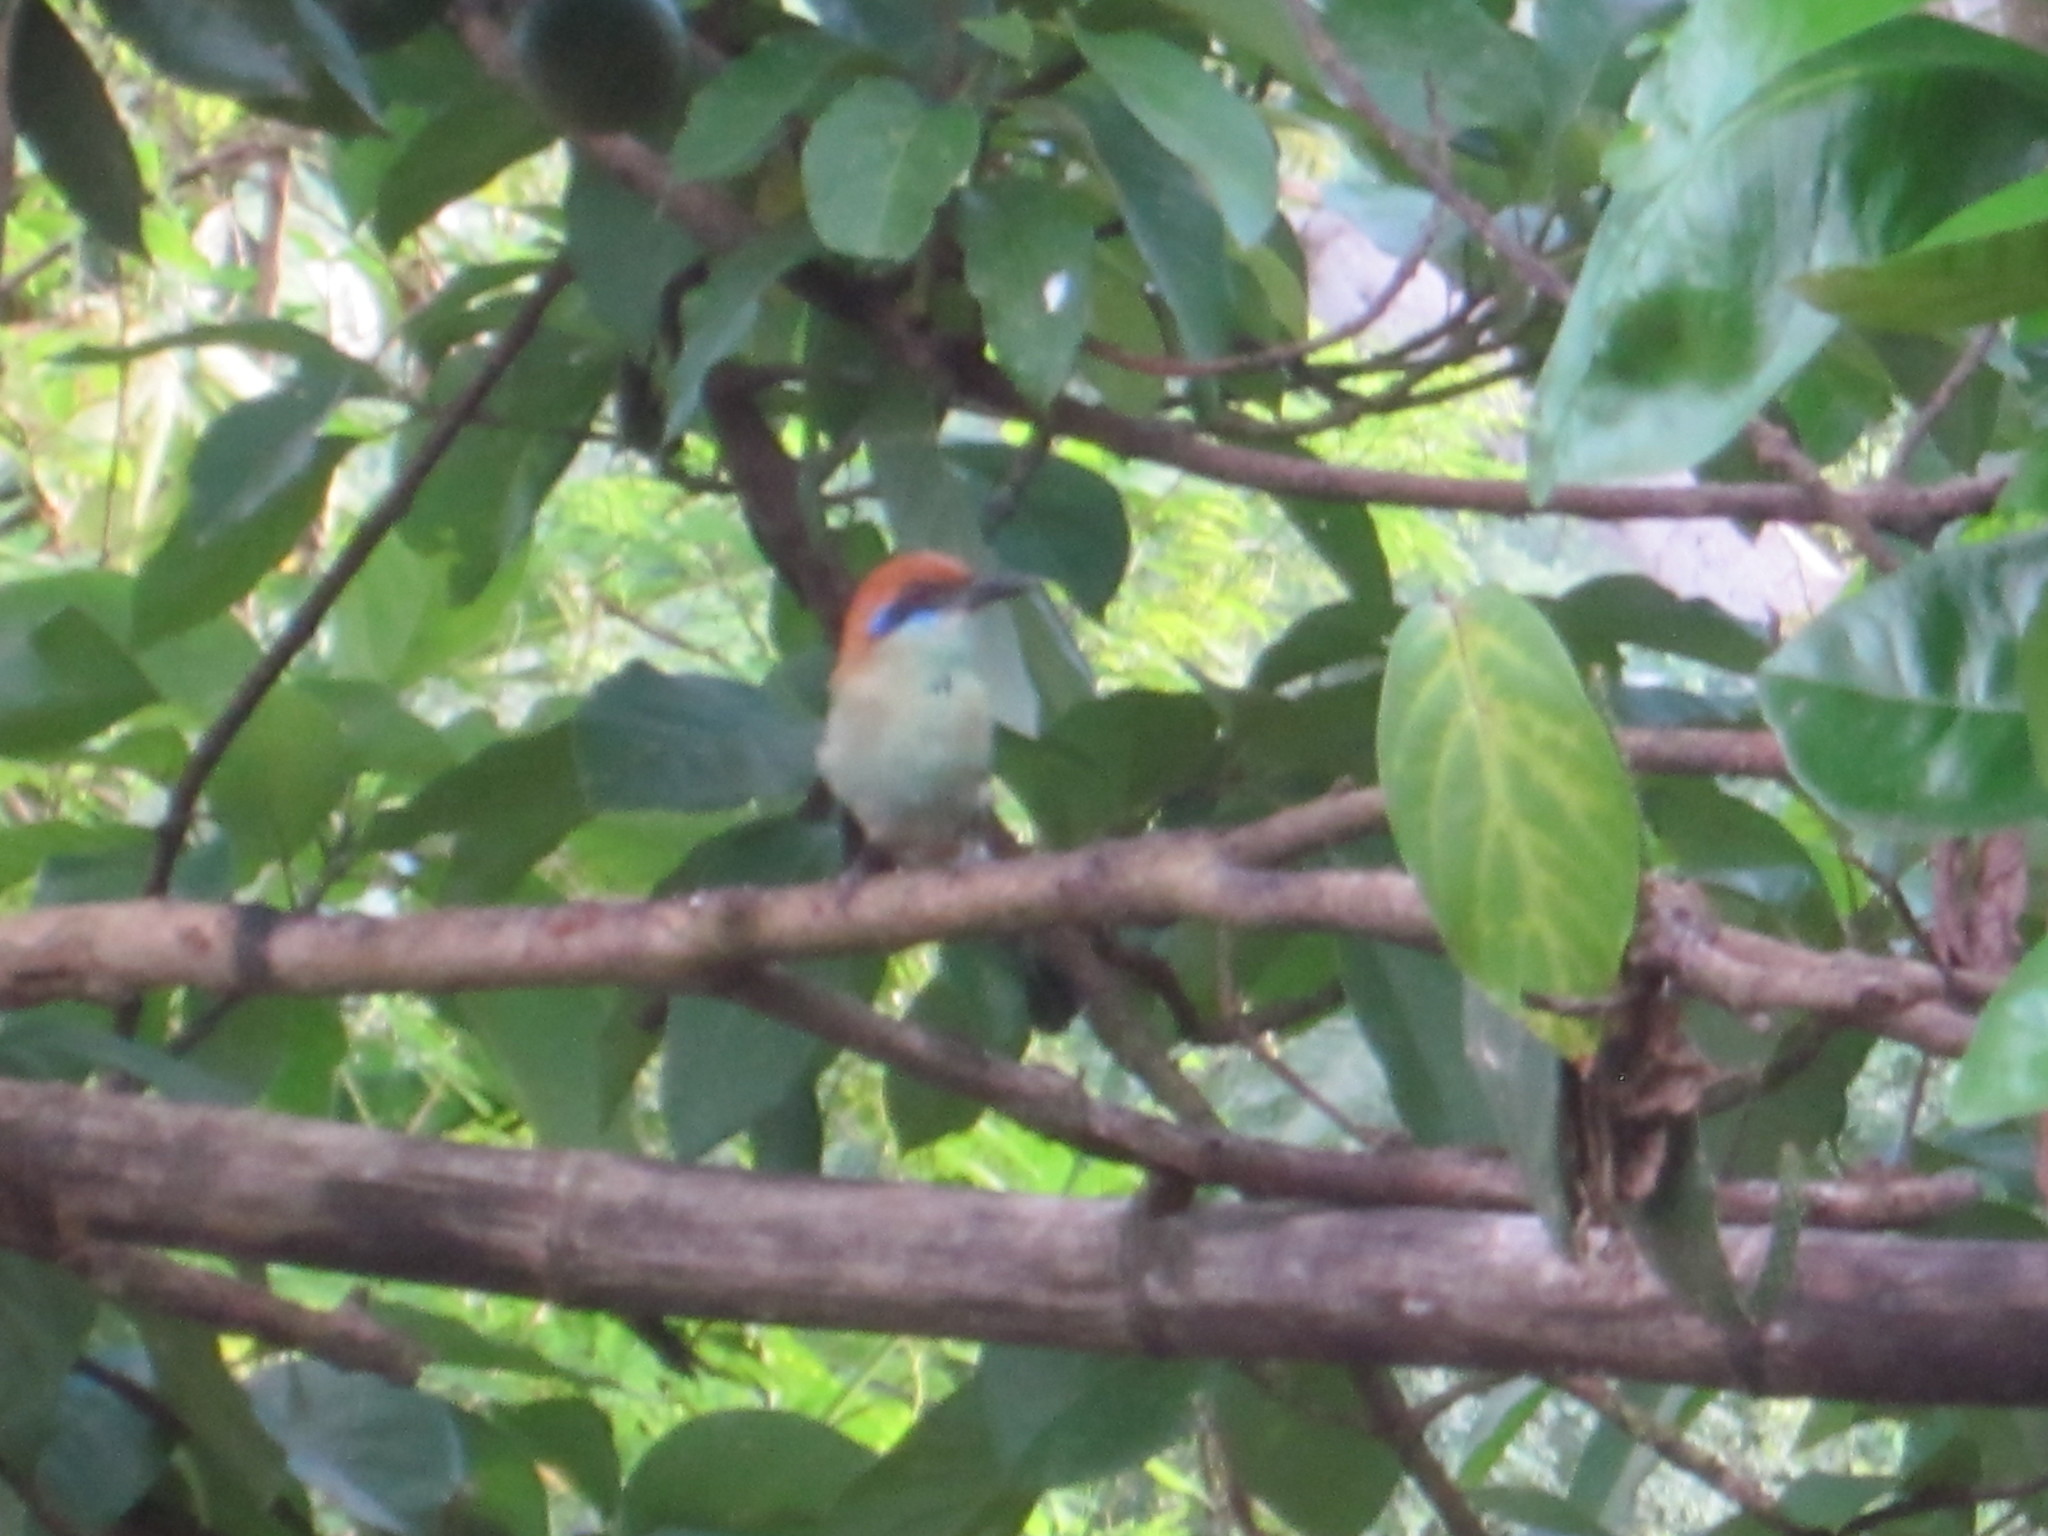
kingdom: Animalia
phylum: Chordata
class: Aves
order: Coraciiformes
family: Momotidae
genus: Momotus
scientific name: Momotus mexicanus
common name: Russet-crowned motmot
